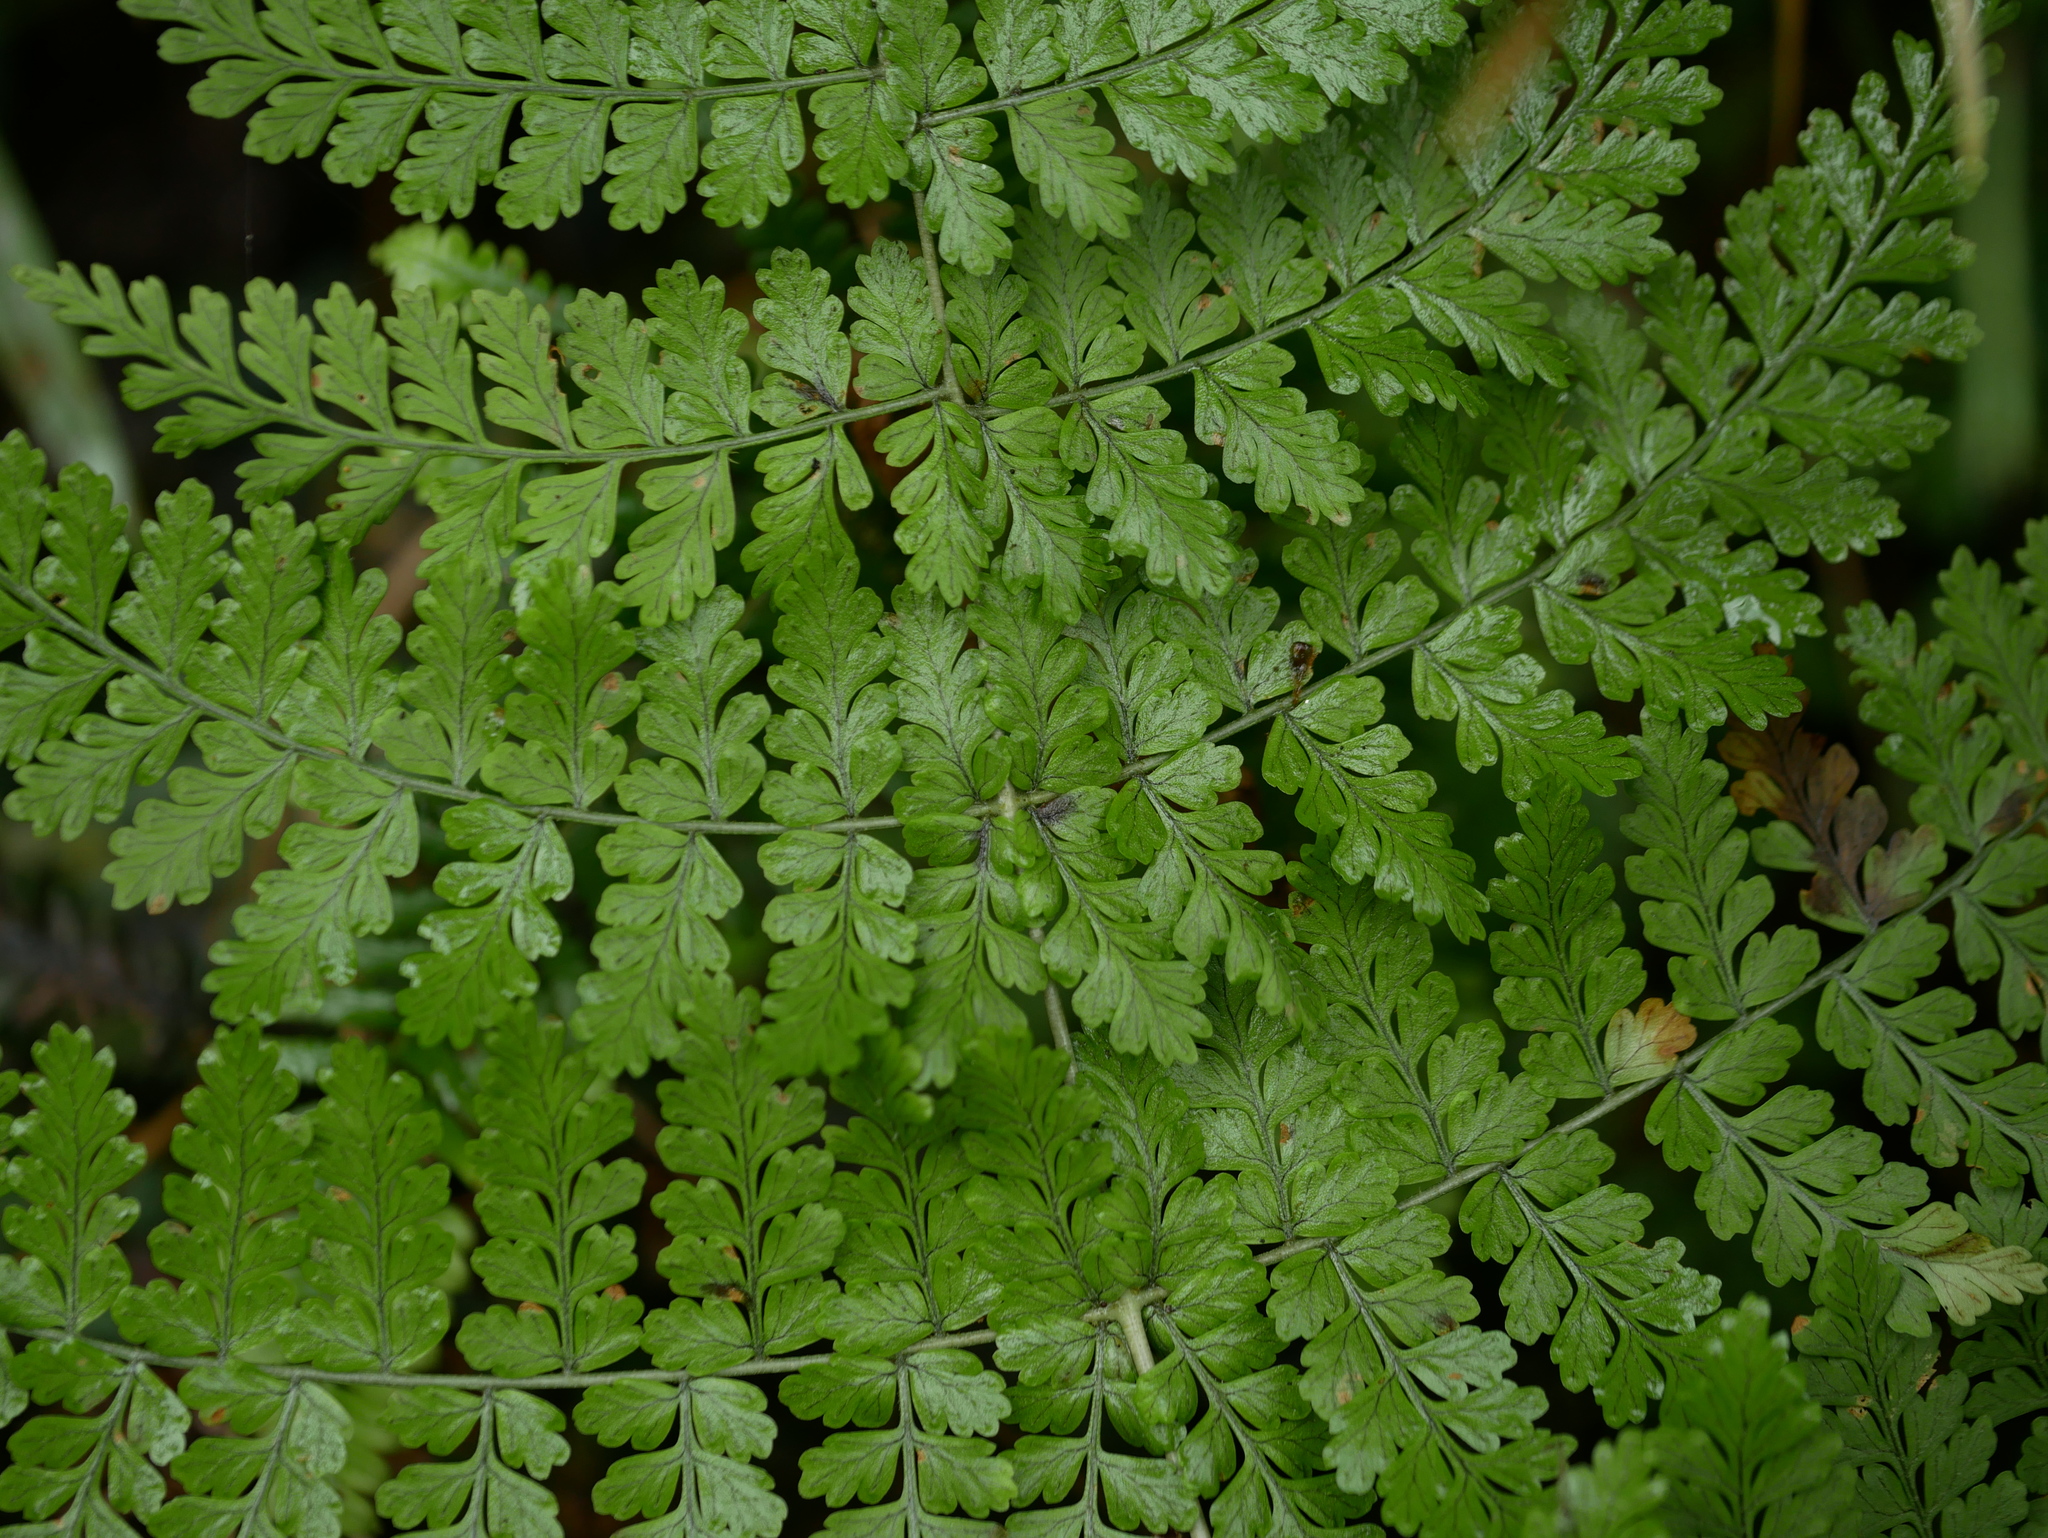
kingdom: Plantae
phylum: Tracheophyta
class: Polypodiopsida
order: Polypodiales
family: Dryopteridaceae
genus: Dryopteris
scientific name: Dryopteris paleolata
